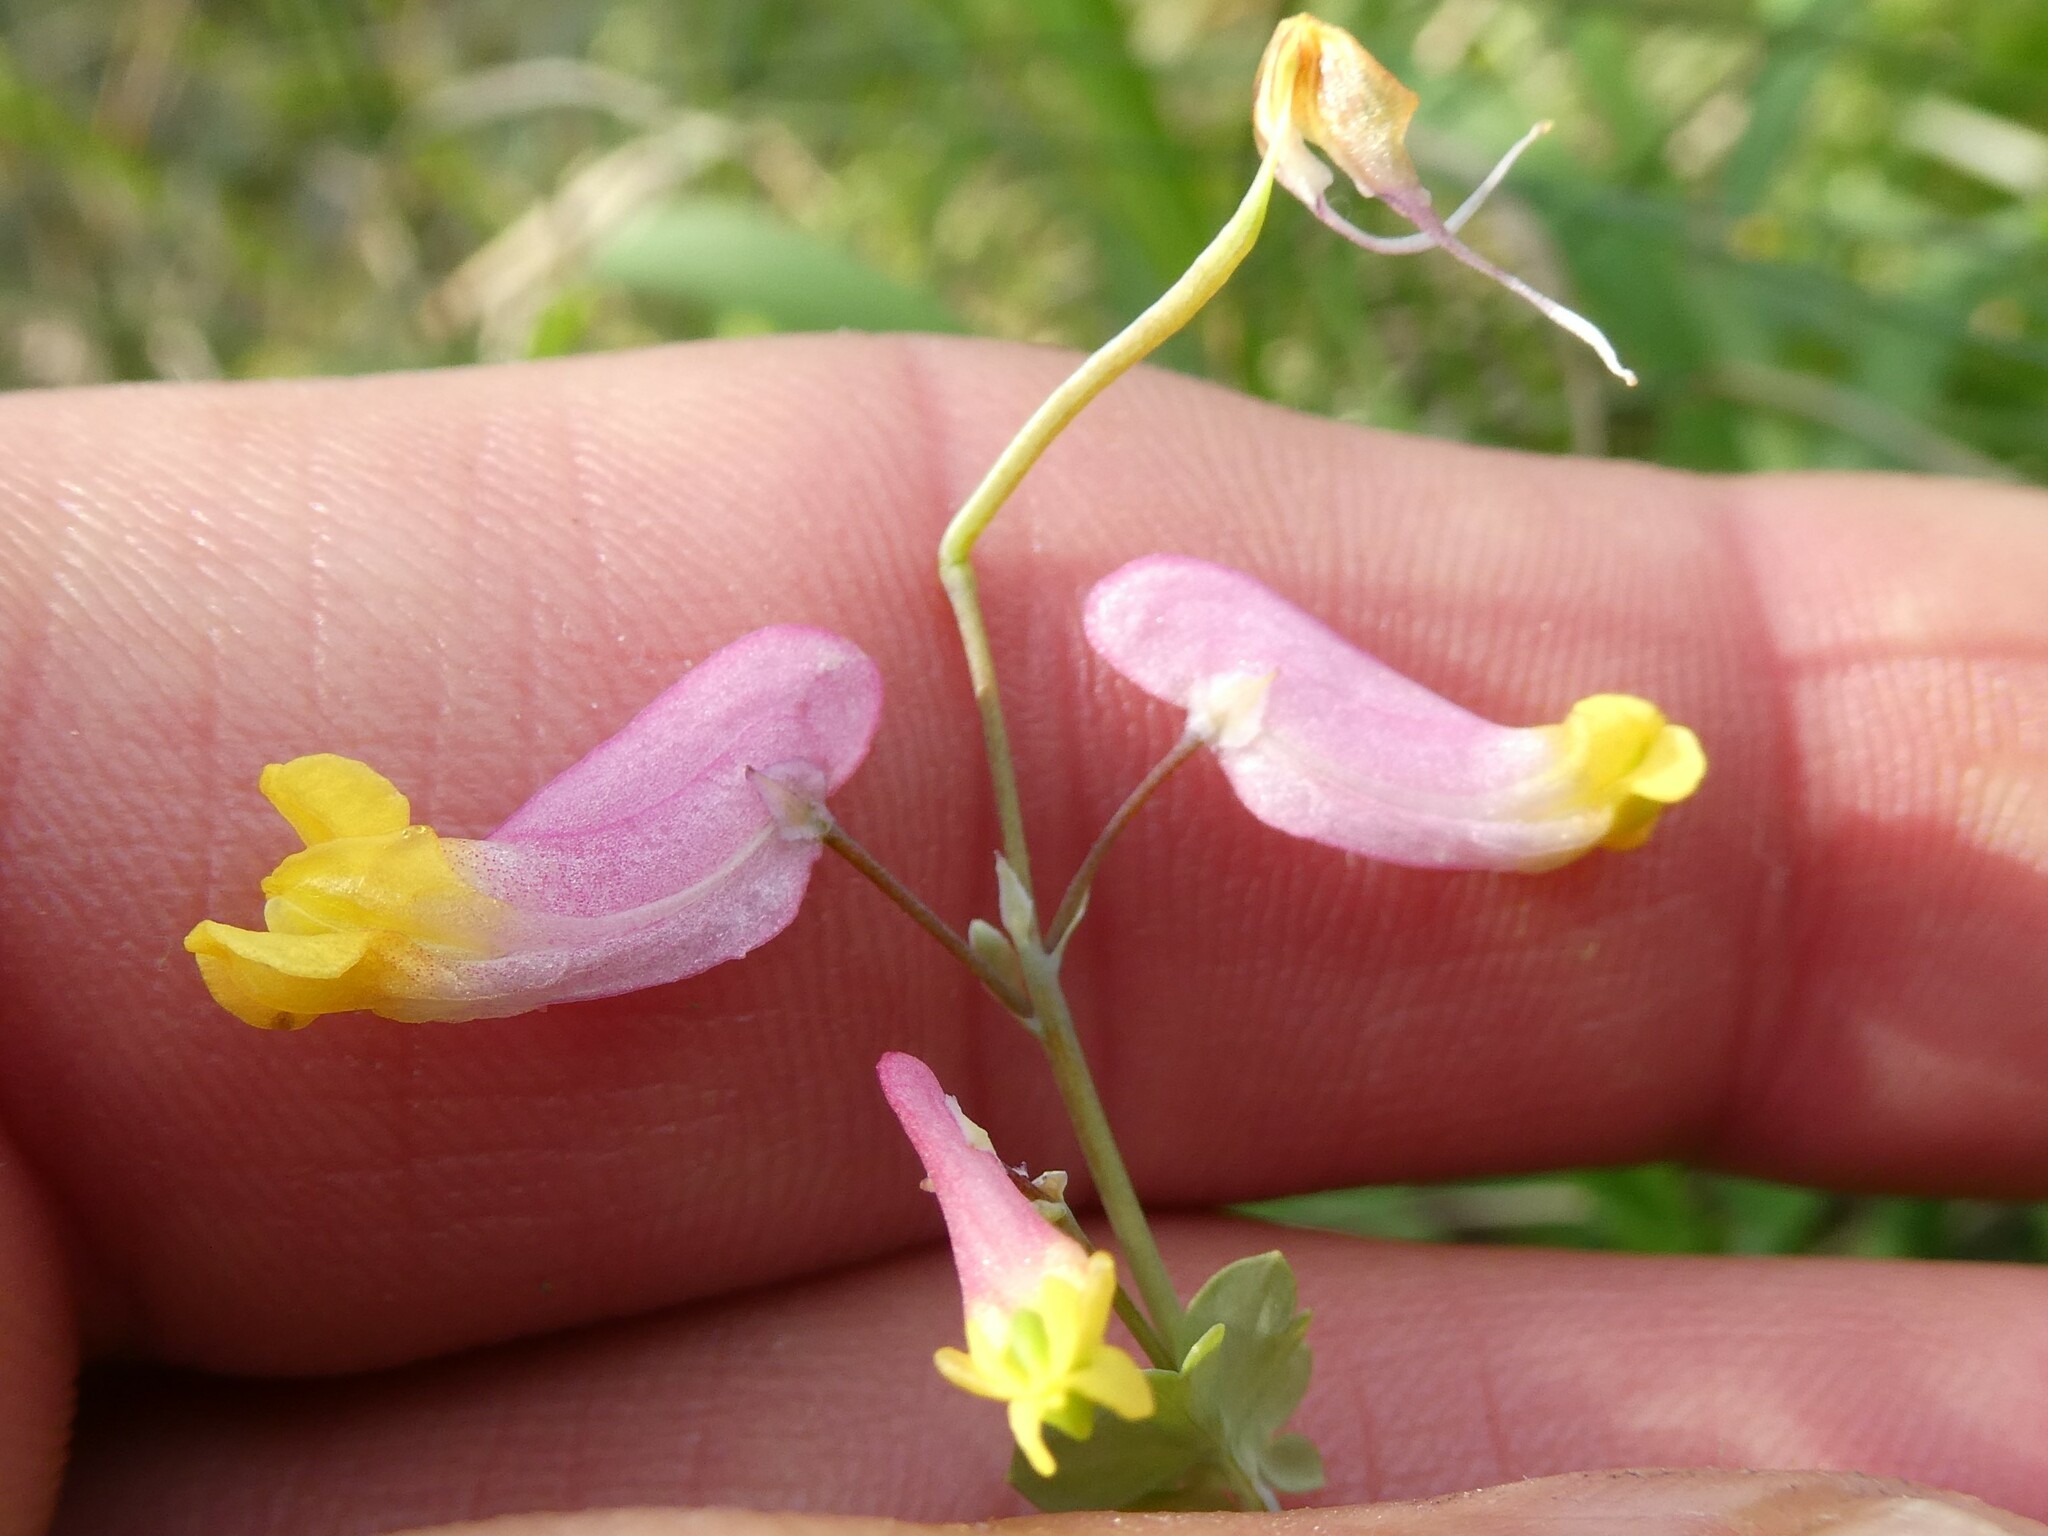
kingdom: Plantae
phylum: Tracheophyta
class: Magnoliopsida
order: Ranunculales
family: Papaveraceae
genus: Capnoides
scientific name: Capnoides sempervirens
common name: Rock harlequin
